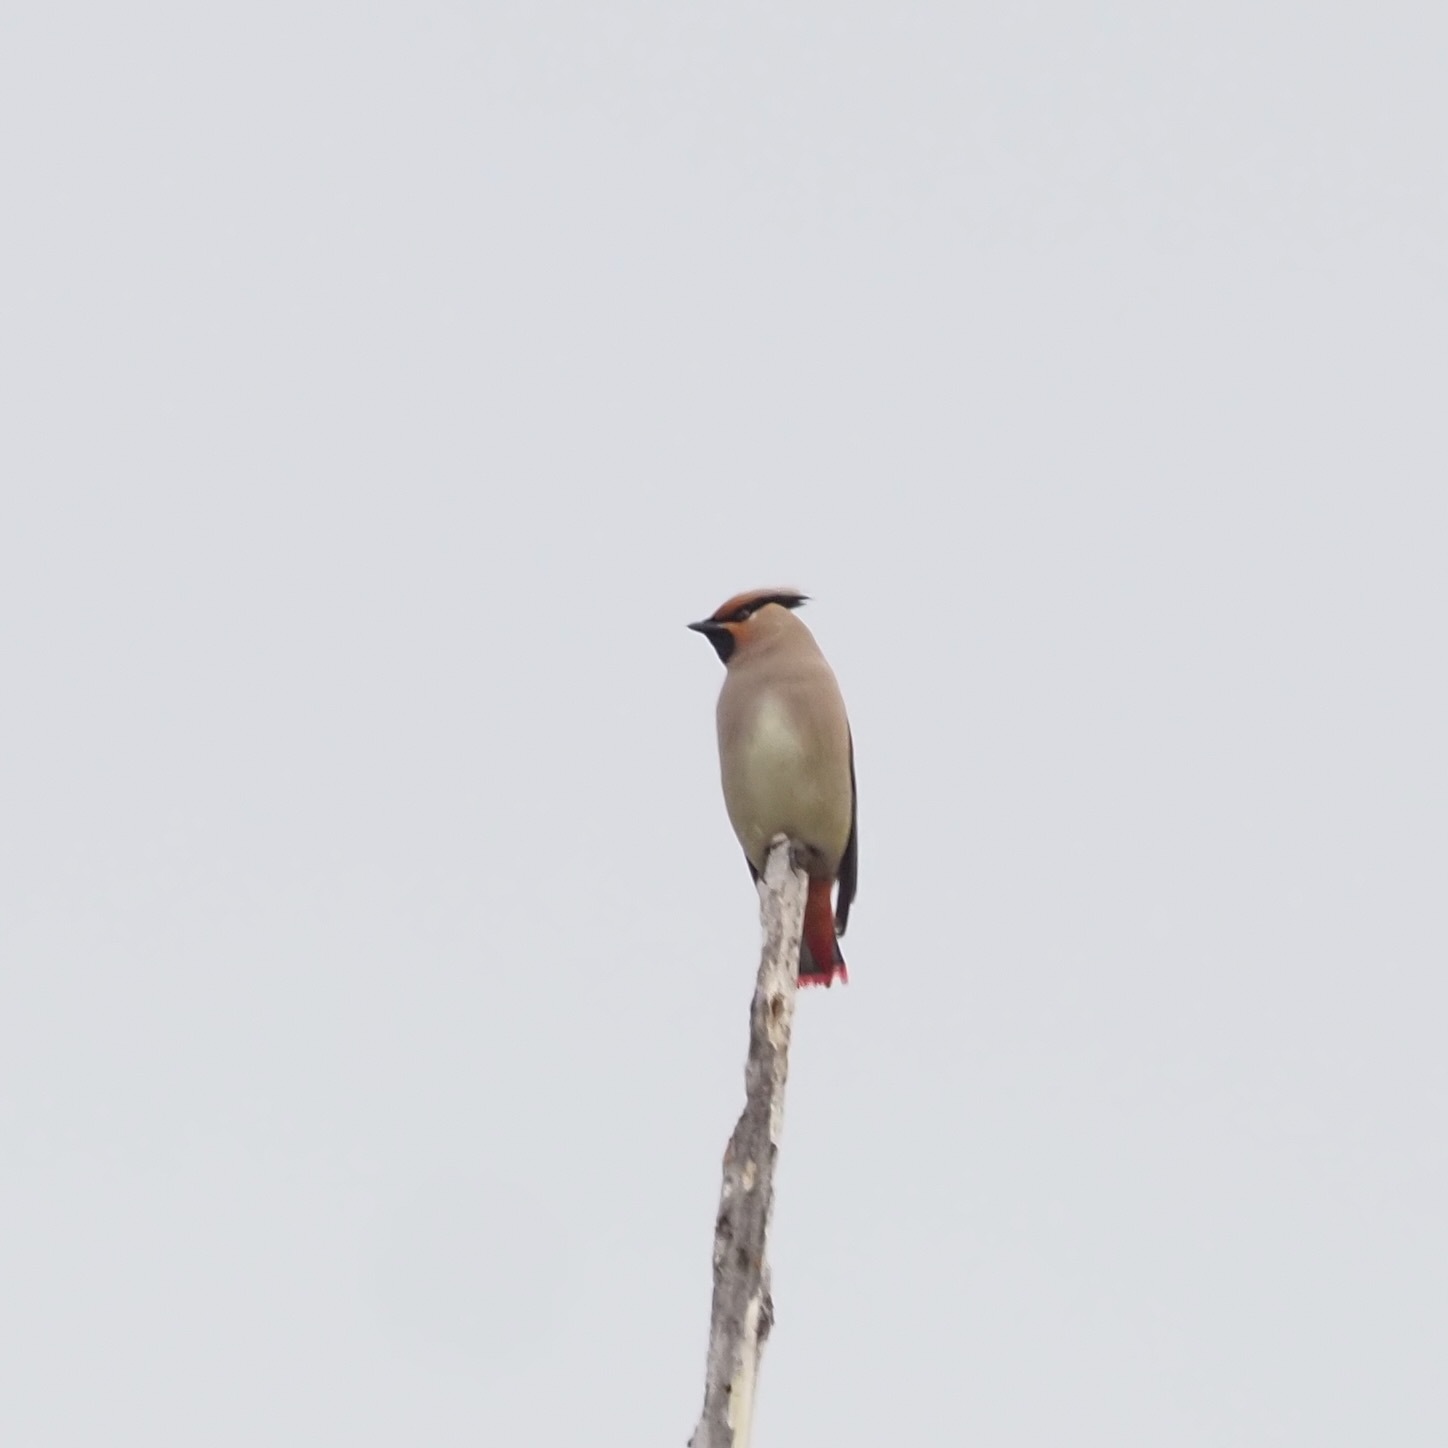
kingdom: Animalia
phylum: Chordata
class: Aves
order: Passeriformes
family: Bombycillidae
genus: Bombycilla
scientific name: Bombycilla japonica
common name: Japanese waxwing
